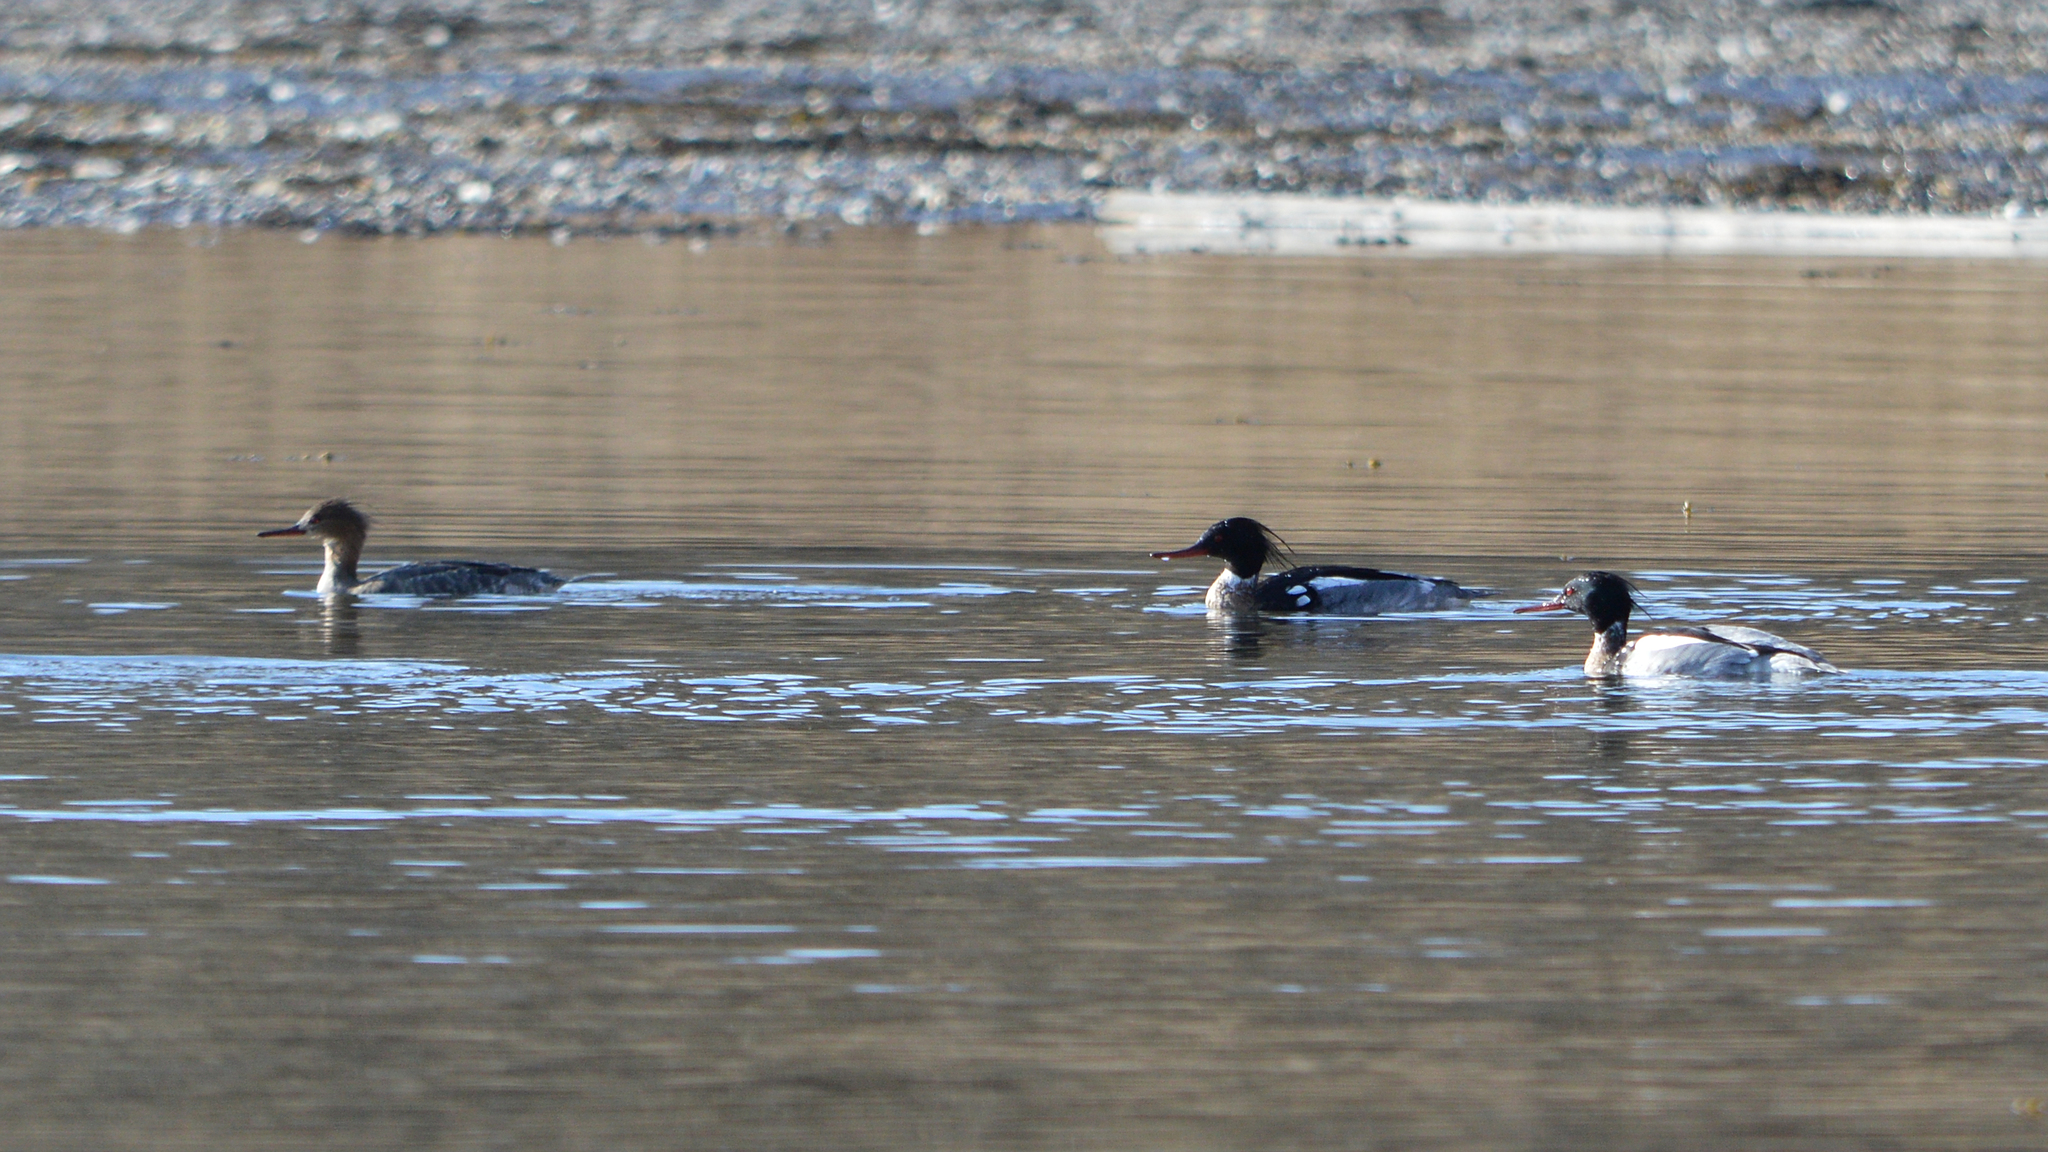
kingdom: Animalia
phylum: Chordata
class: Aves
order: Anseriformes
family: Anatidae
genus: Mergus
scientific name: Mergus serrator
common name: Red-breasted merganser
